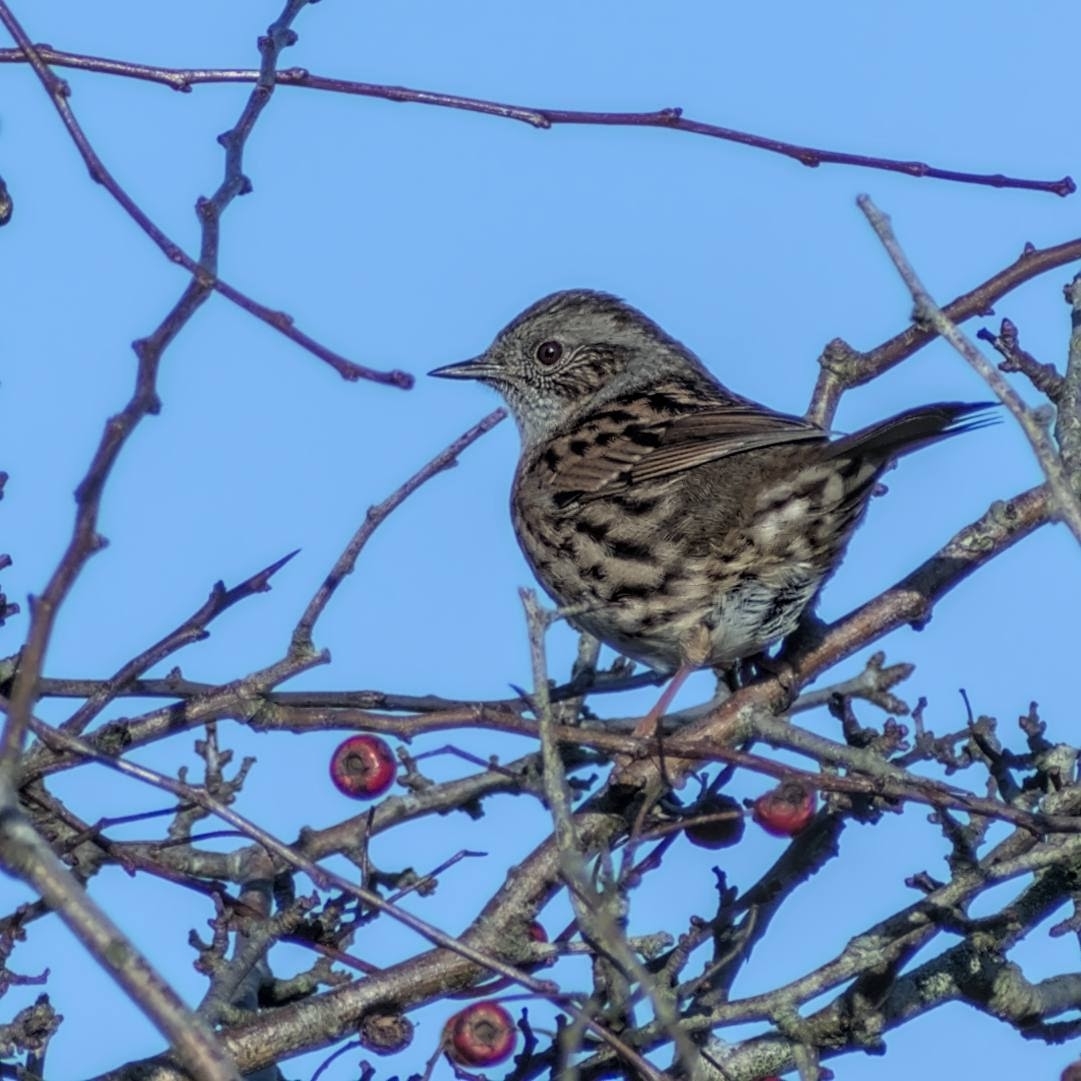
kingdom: Animalia
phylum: Chordata
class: Aves
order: Passeriformes
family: Prunellidae
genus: Prunella
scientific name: Prunella modularis
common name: Dunnock
